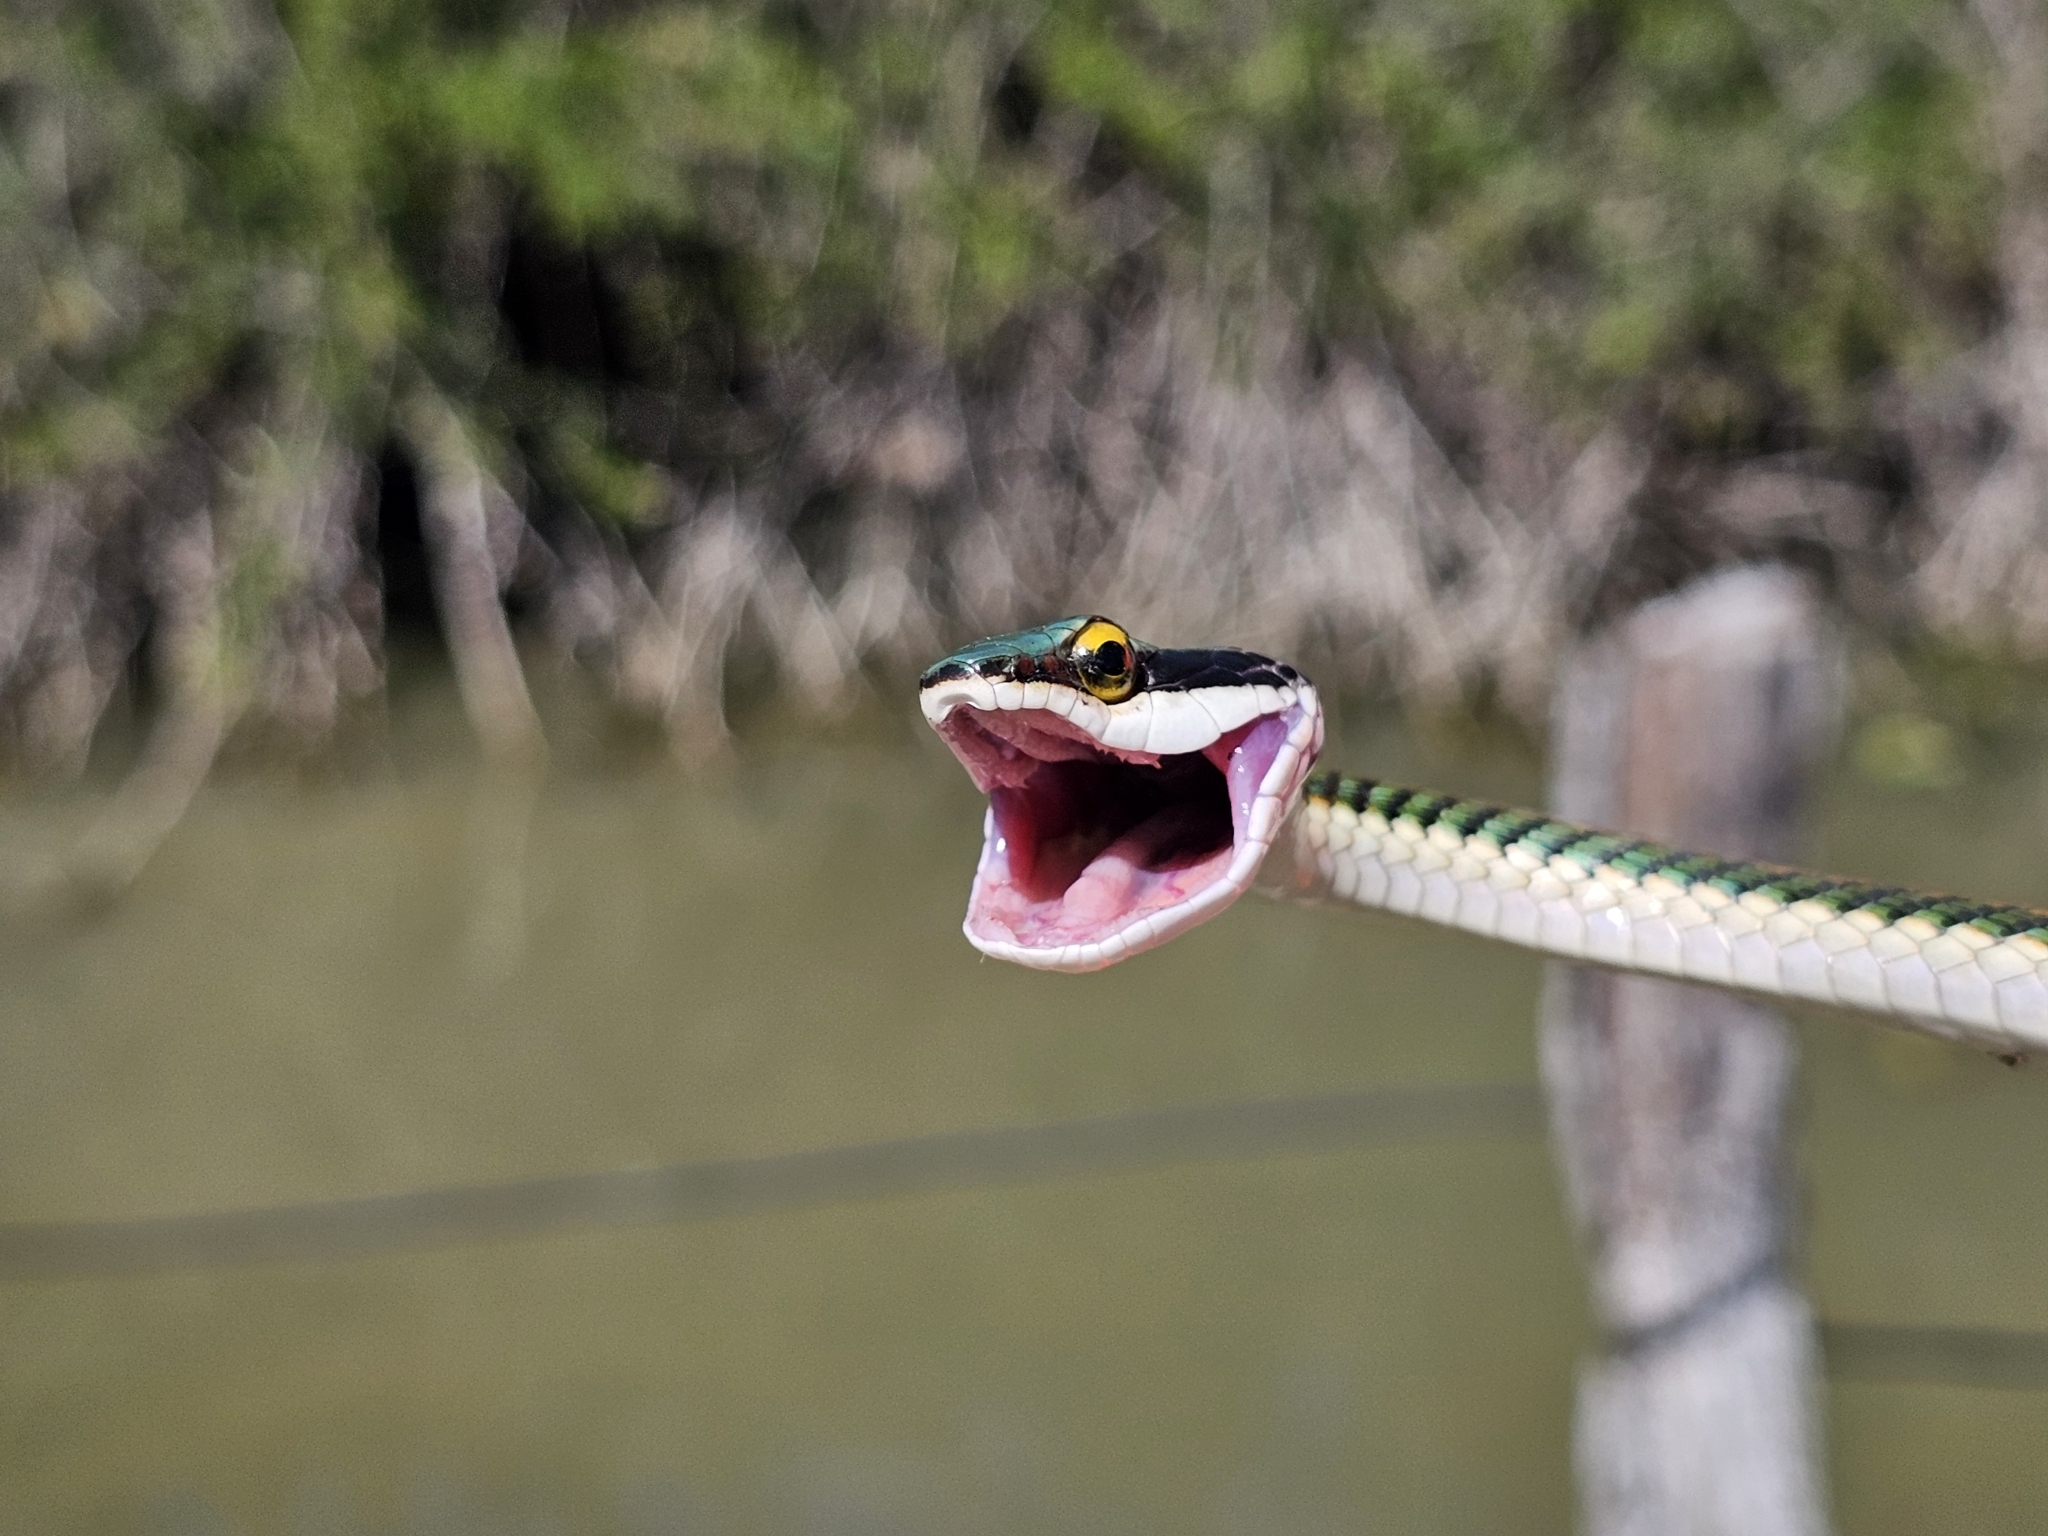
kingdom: Animalia
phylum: Chordata
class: Squamata
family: Colubridae
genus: Leptophis
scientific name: Leptophis mexicanus
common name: Mexican parrot snake
